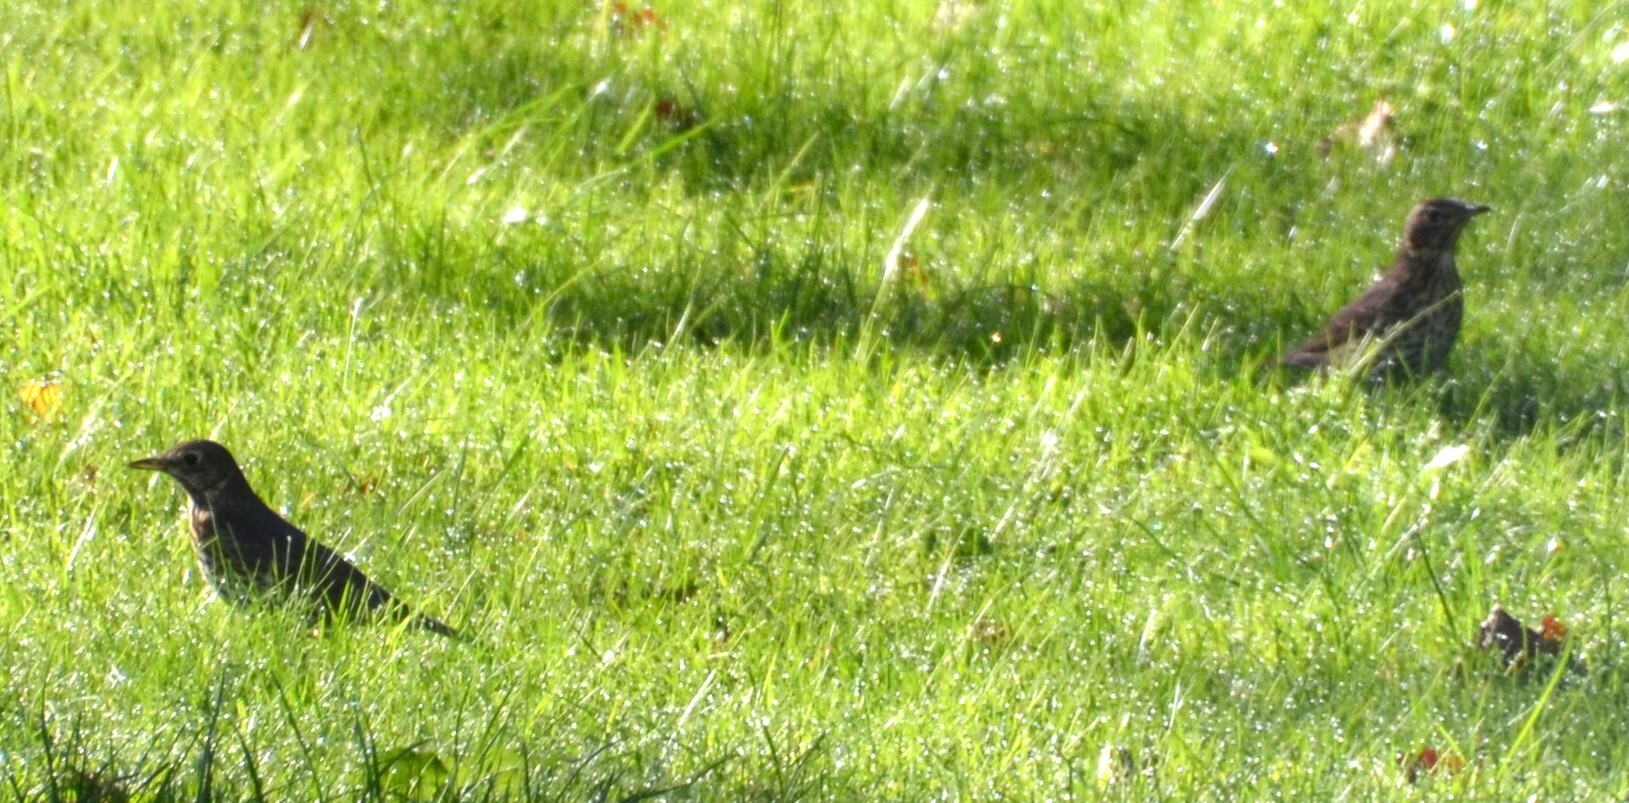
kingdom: Animalia
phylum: Chordata
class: Aves
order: Passeriformes
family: Turdidae
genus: Turdus
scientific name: Turdus philomelos
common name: Song thrush
